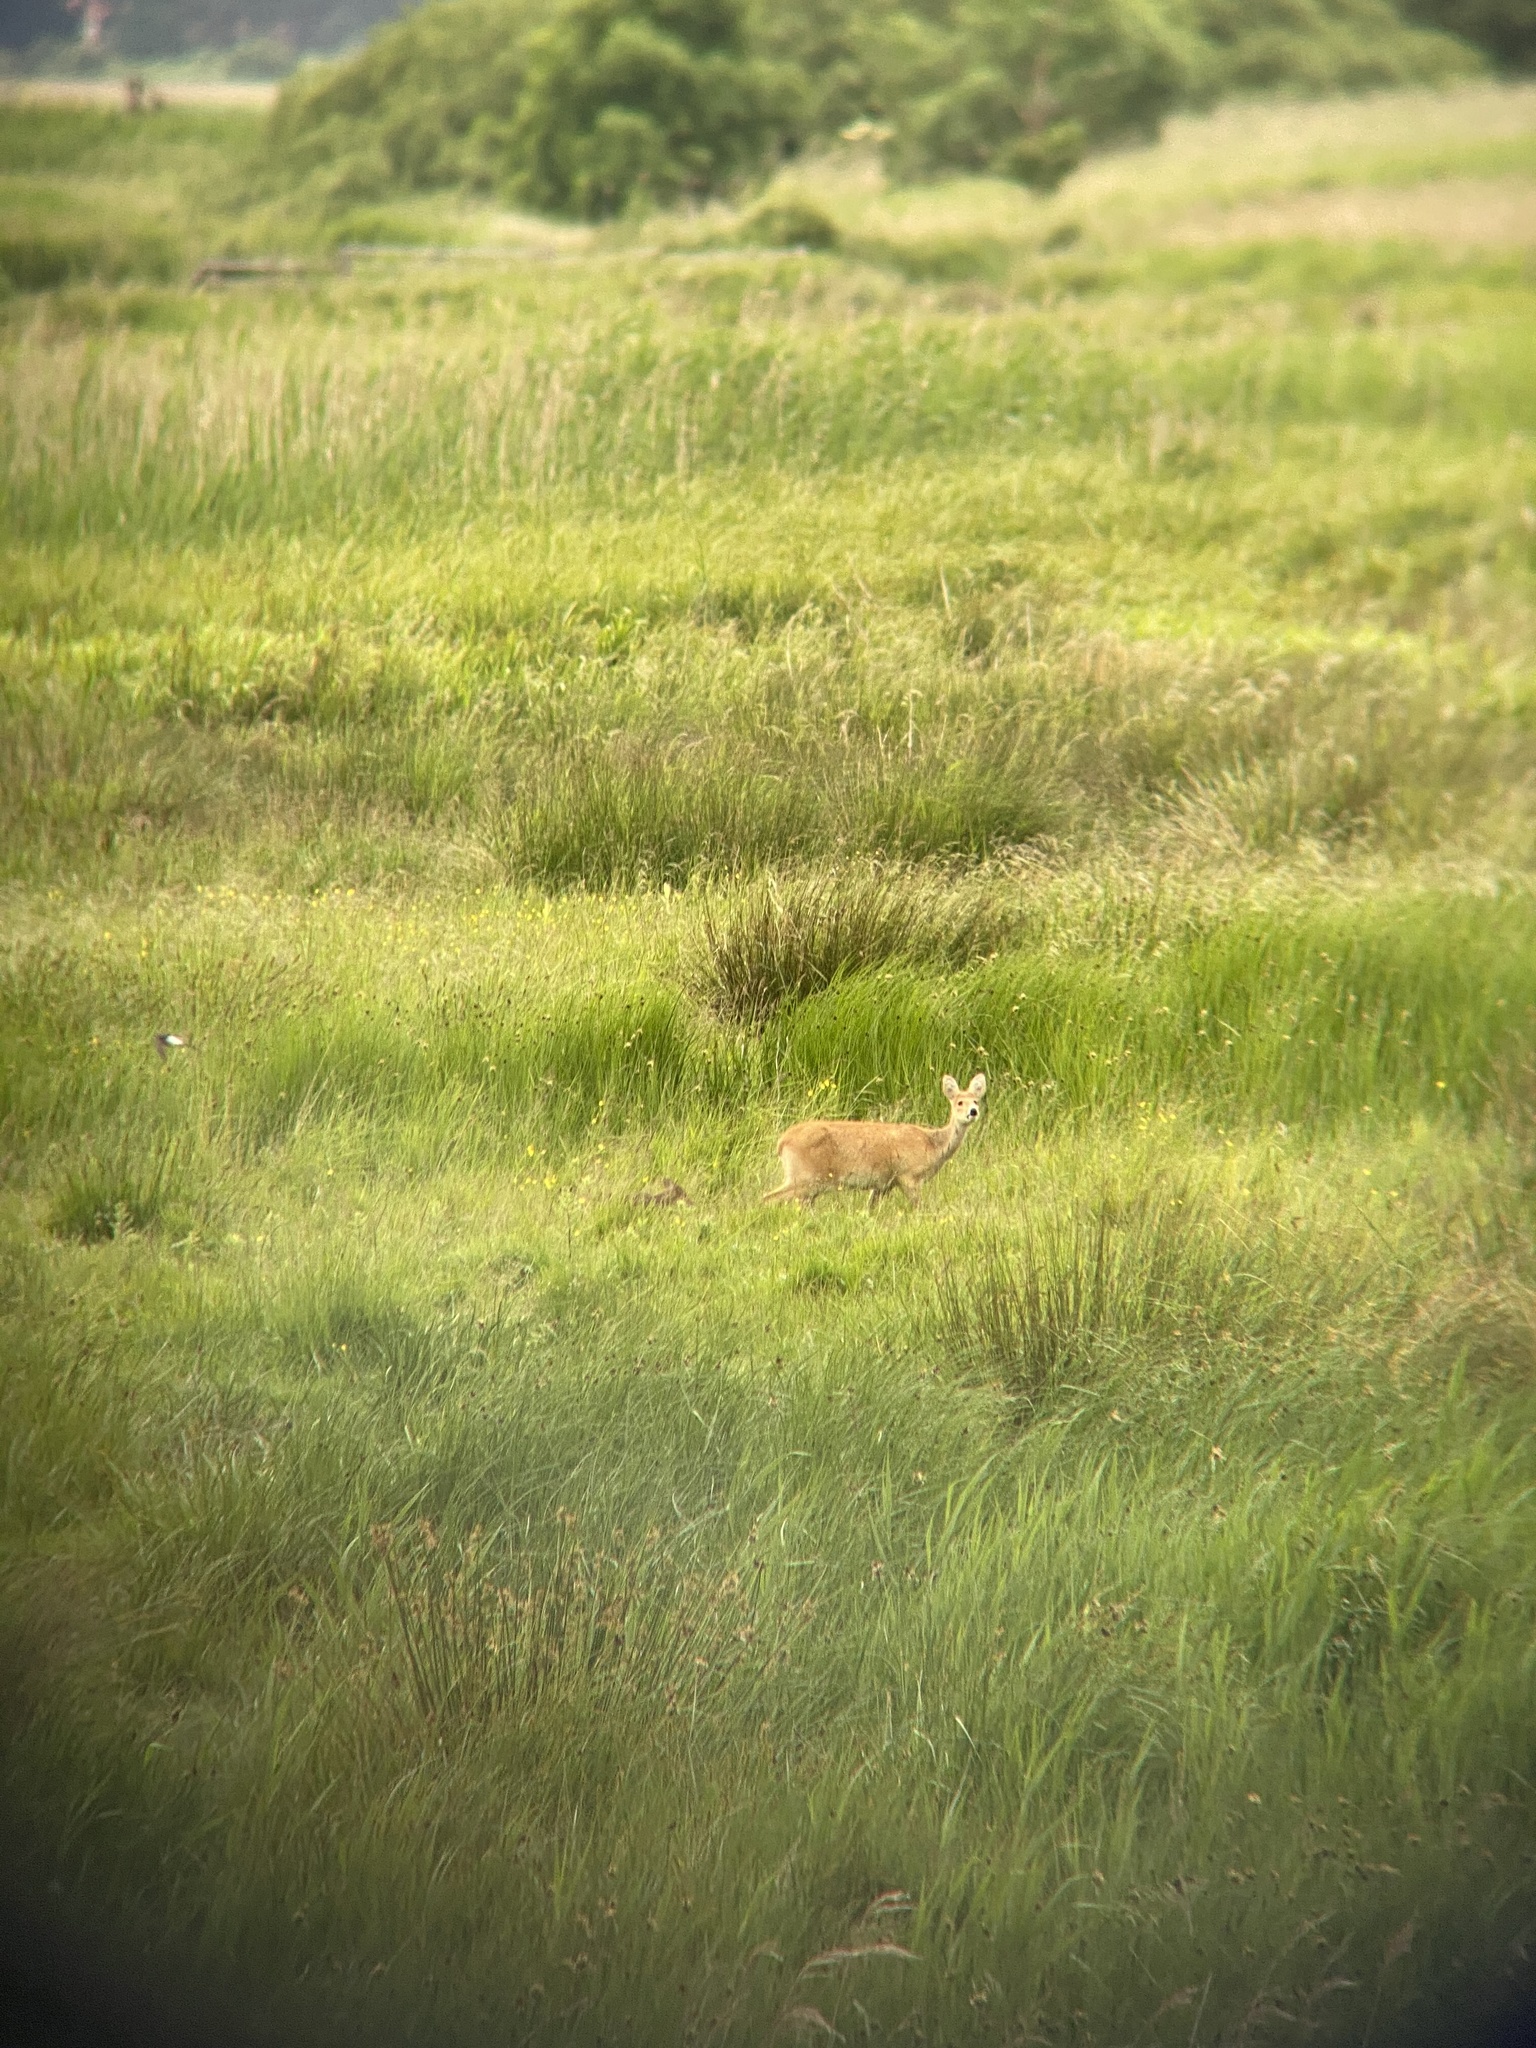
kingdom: Animalia
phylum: Chordata
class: Mammalia
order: Artiodactyla
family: Cervidae
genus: Hydropotes
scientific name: Hydropotes inermis
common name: Chinese water deer
